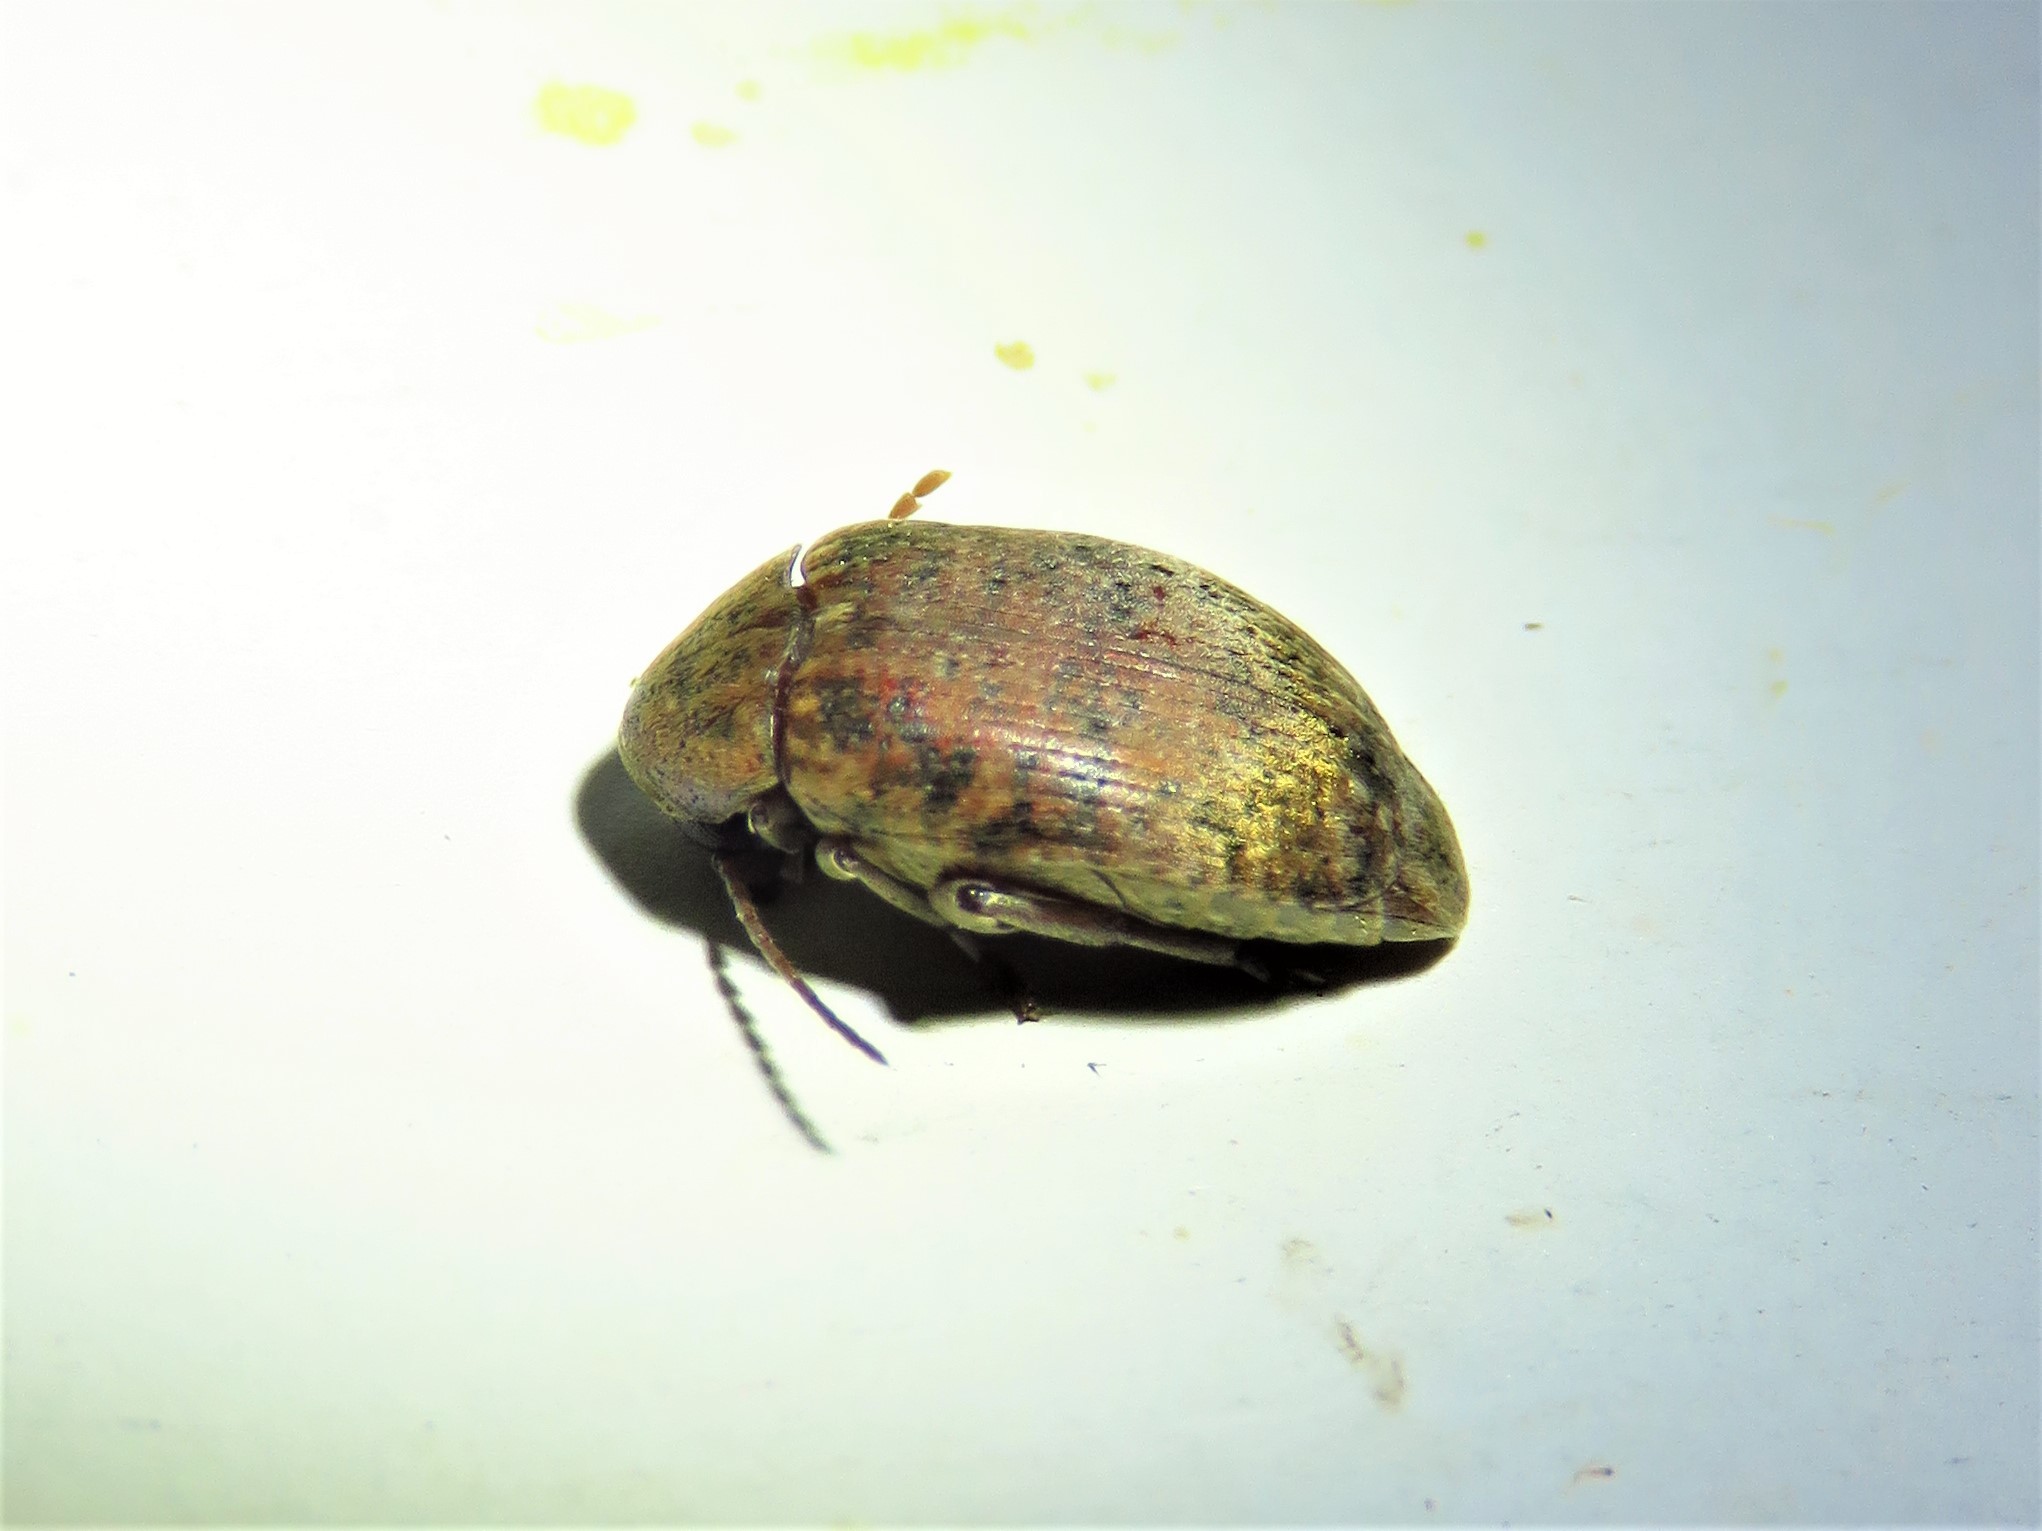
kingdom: Animalia
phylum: Arthropoda
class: Insecta
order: Coleoptera
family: Chrysomelidae
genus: Amblycerus
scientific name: Amblycerus robiniae
